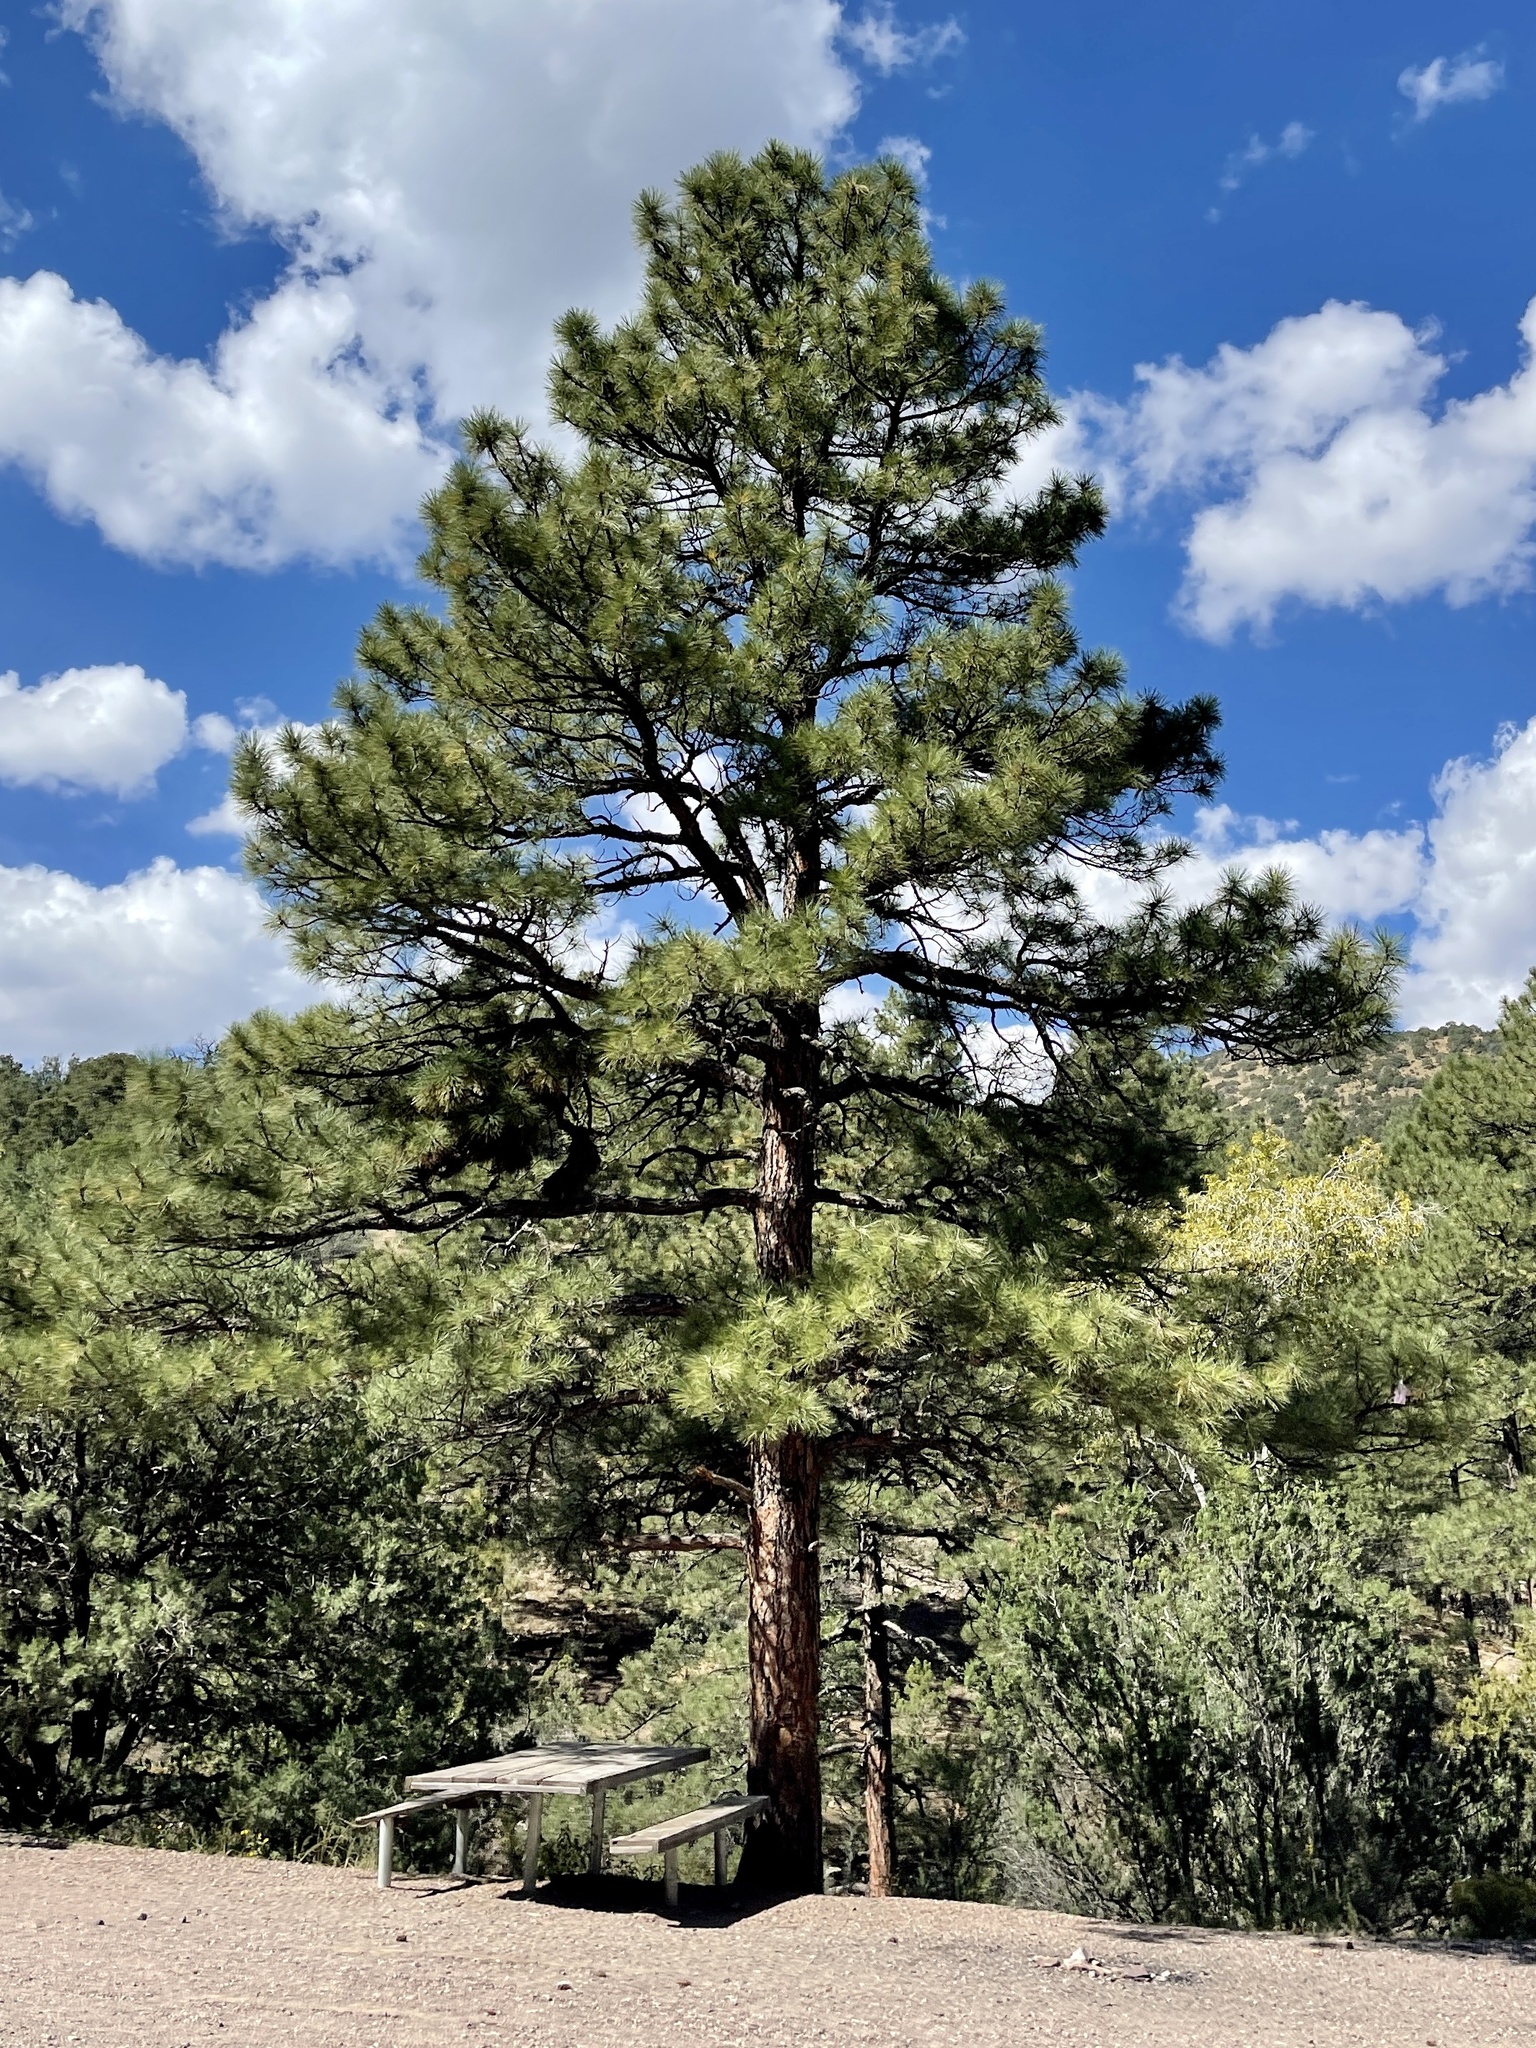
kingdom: Plantae
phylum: Tracheophyta
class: Pinopsida
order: Pinales
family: Pinaceae
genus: Pinus
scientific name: Pinus ponderosa
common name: Western yellow-pine
